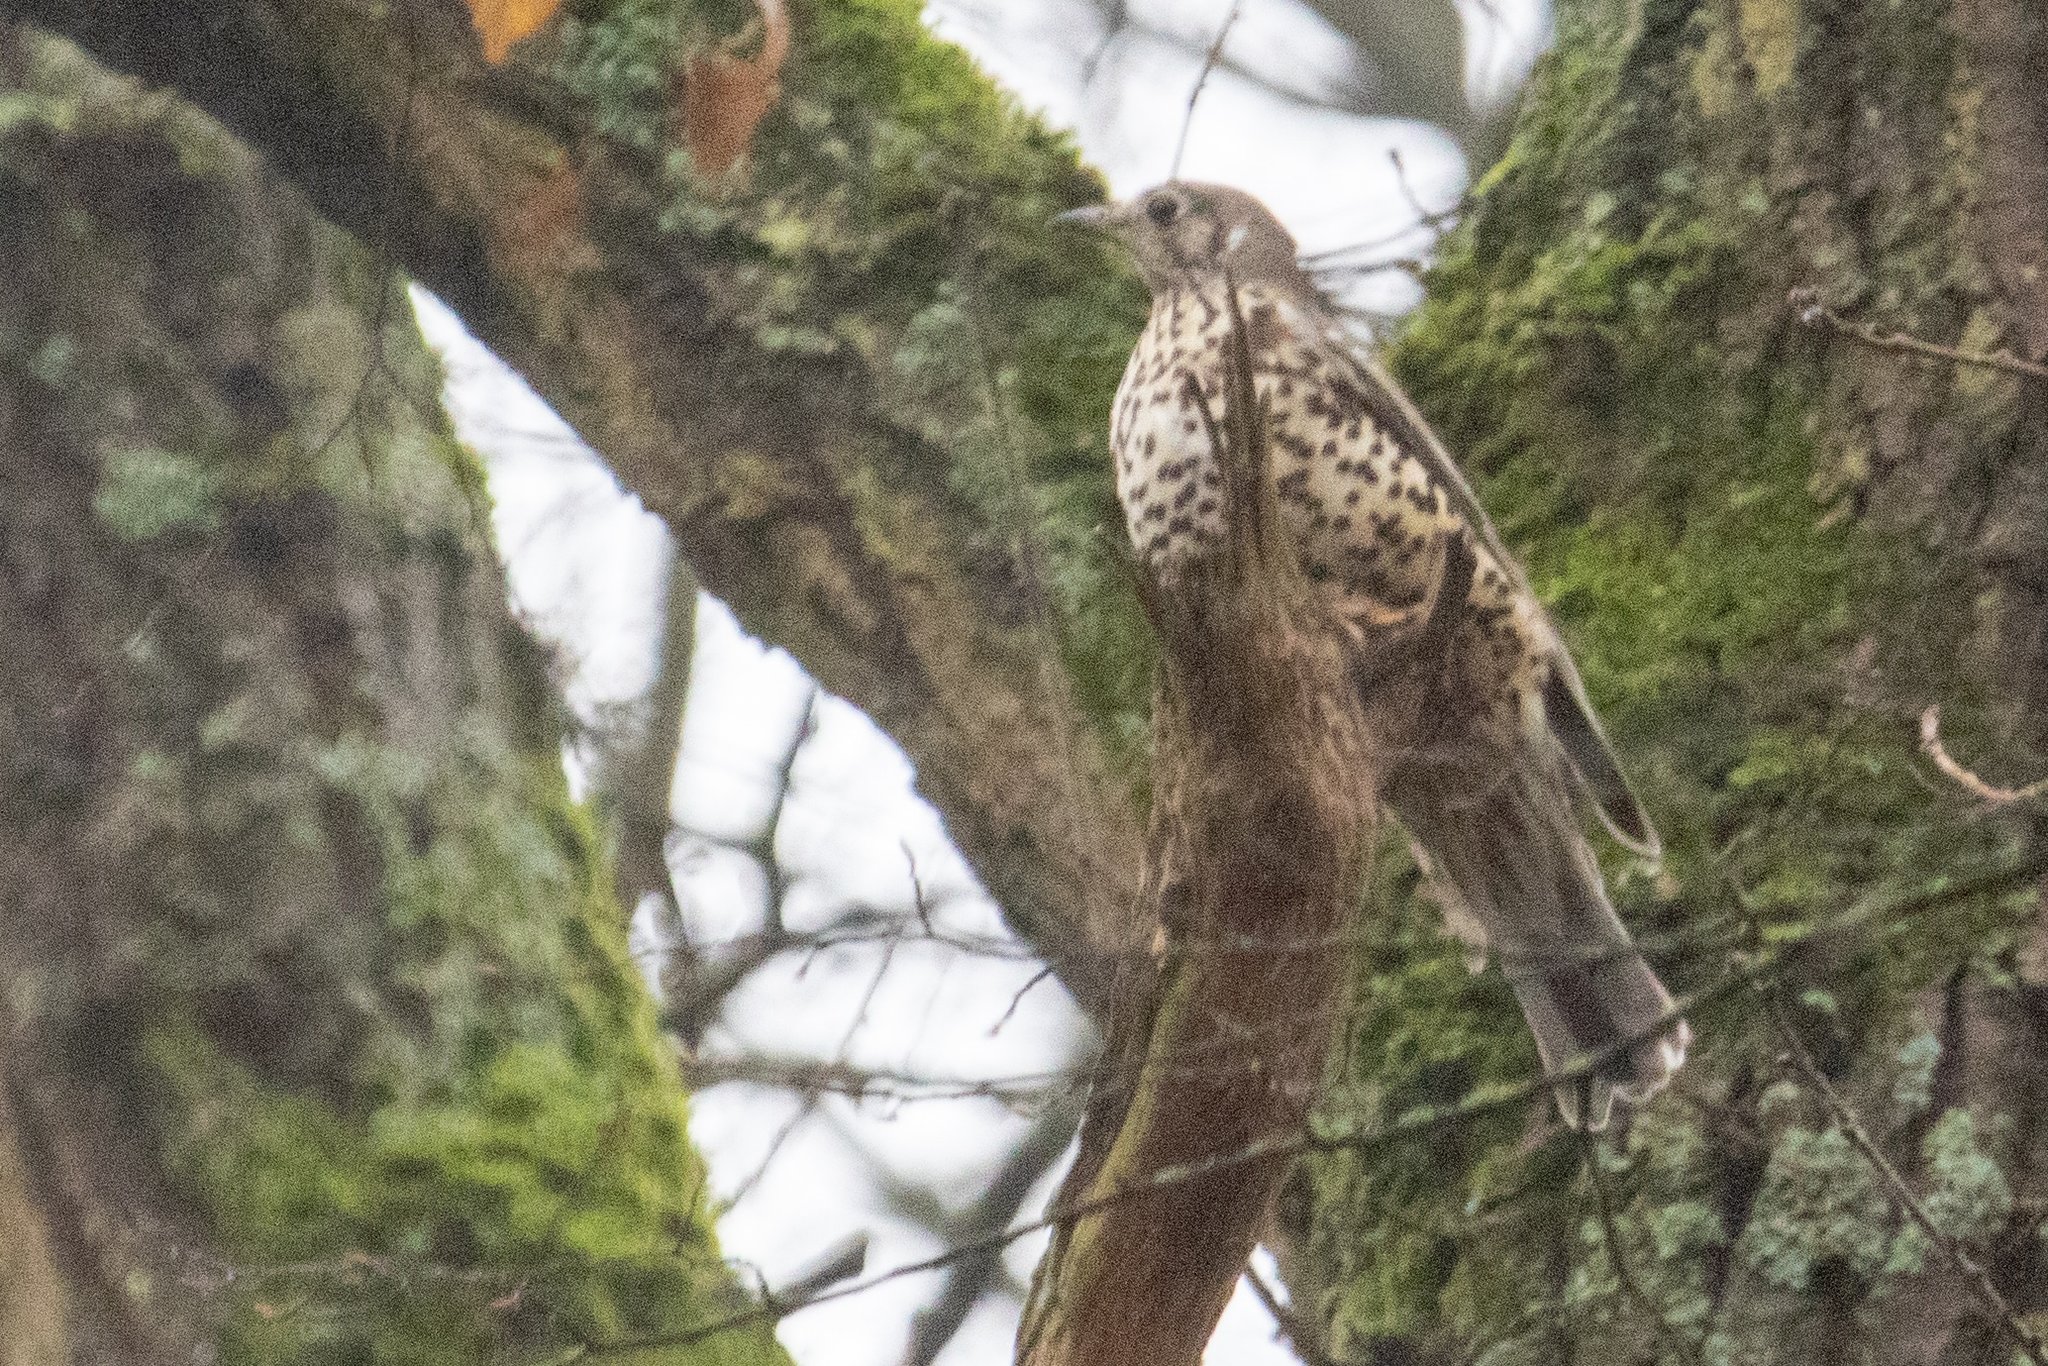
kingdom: Animalia
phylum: Chordata
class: Aves
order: Passeriformes
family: Turdidae
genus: Turdus
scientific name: Turdus viscivorus
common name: Mistle thrush
